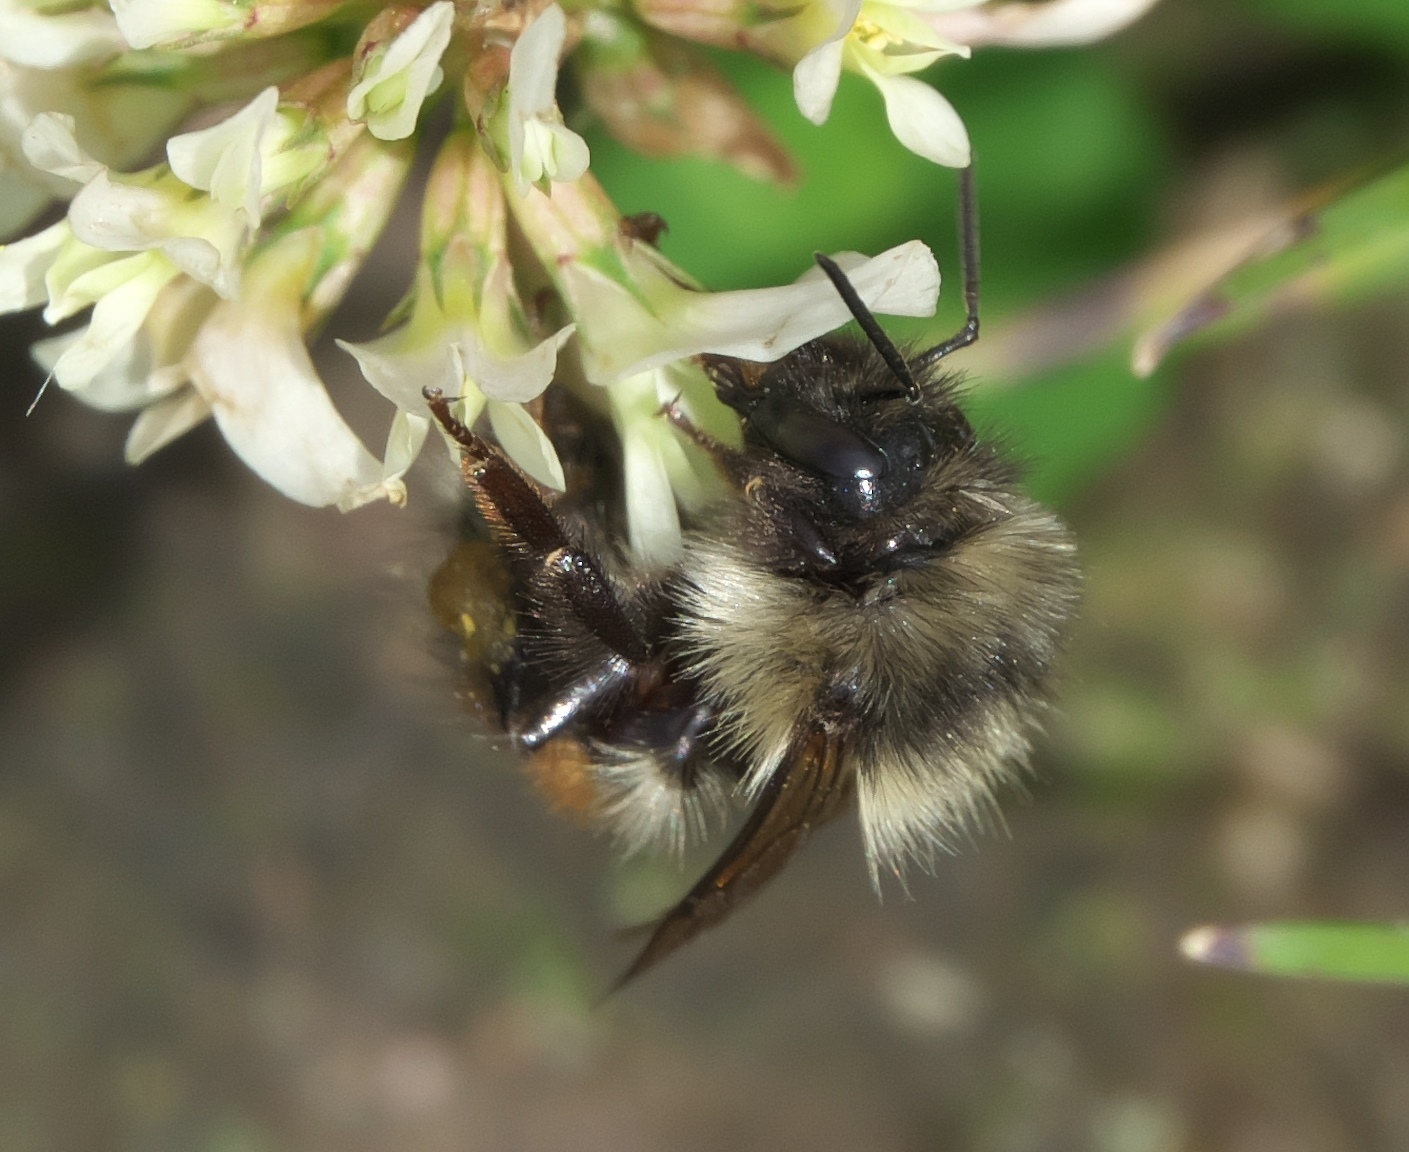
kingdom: Animalia
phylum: Arthropoda
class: Insecta
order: Hymenoptera
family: Apidae
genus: Bombus
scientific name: Bombus melanopygus
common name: Black tail bumble bee
